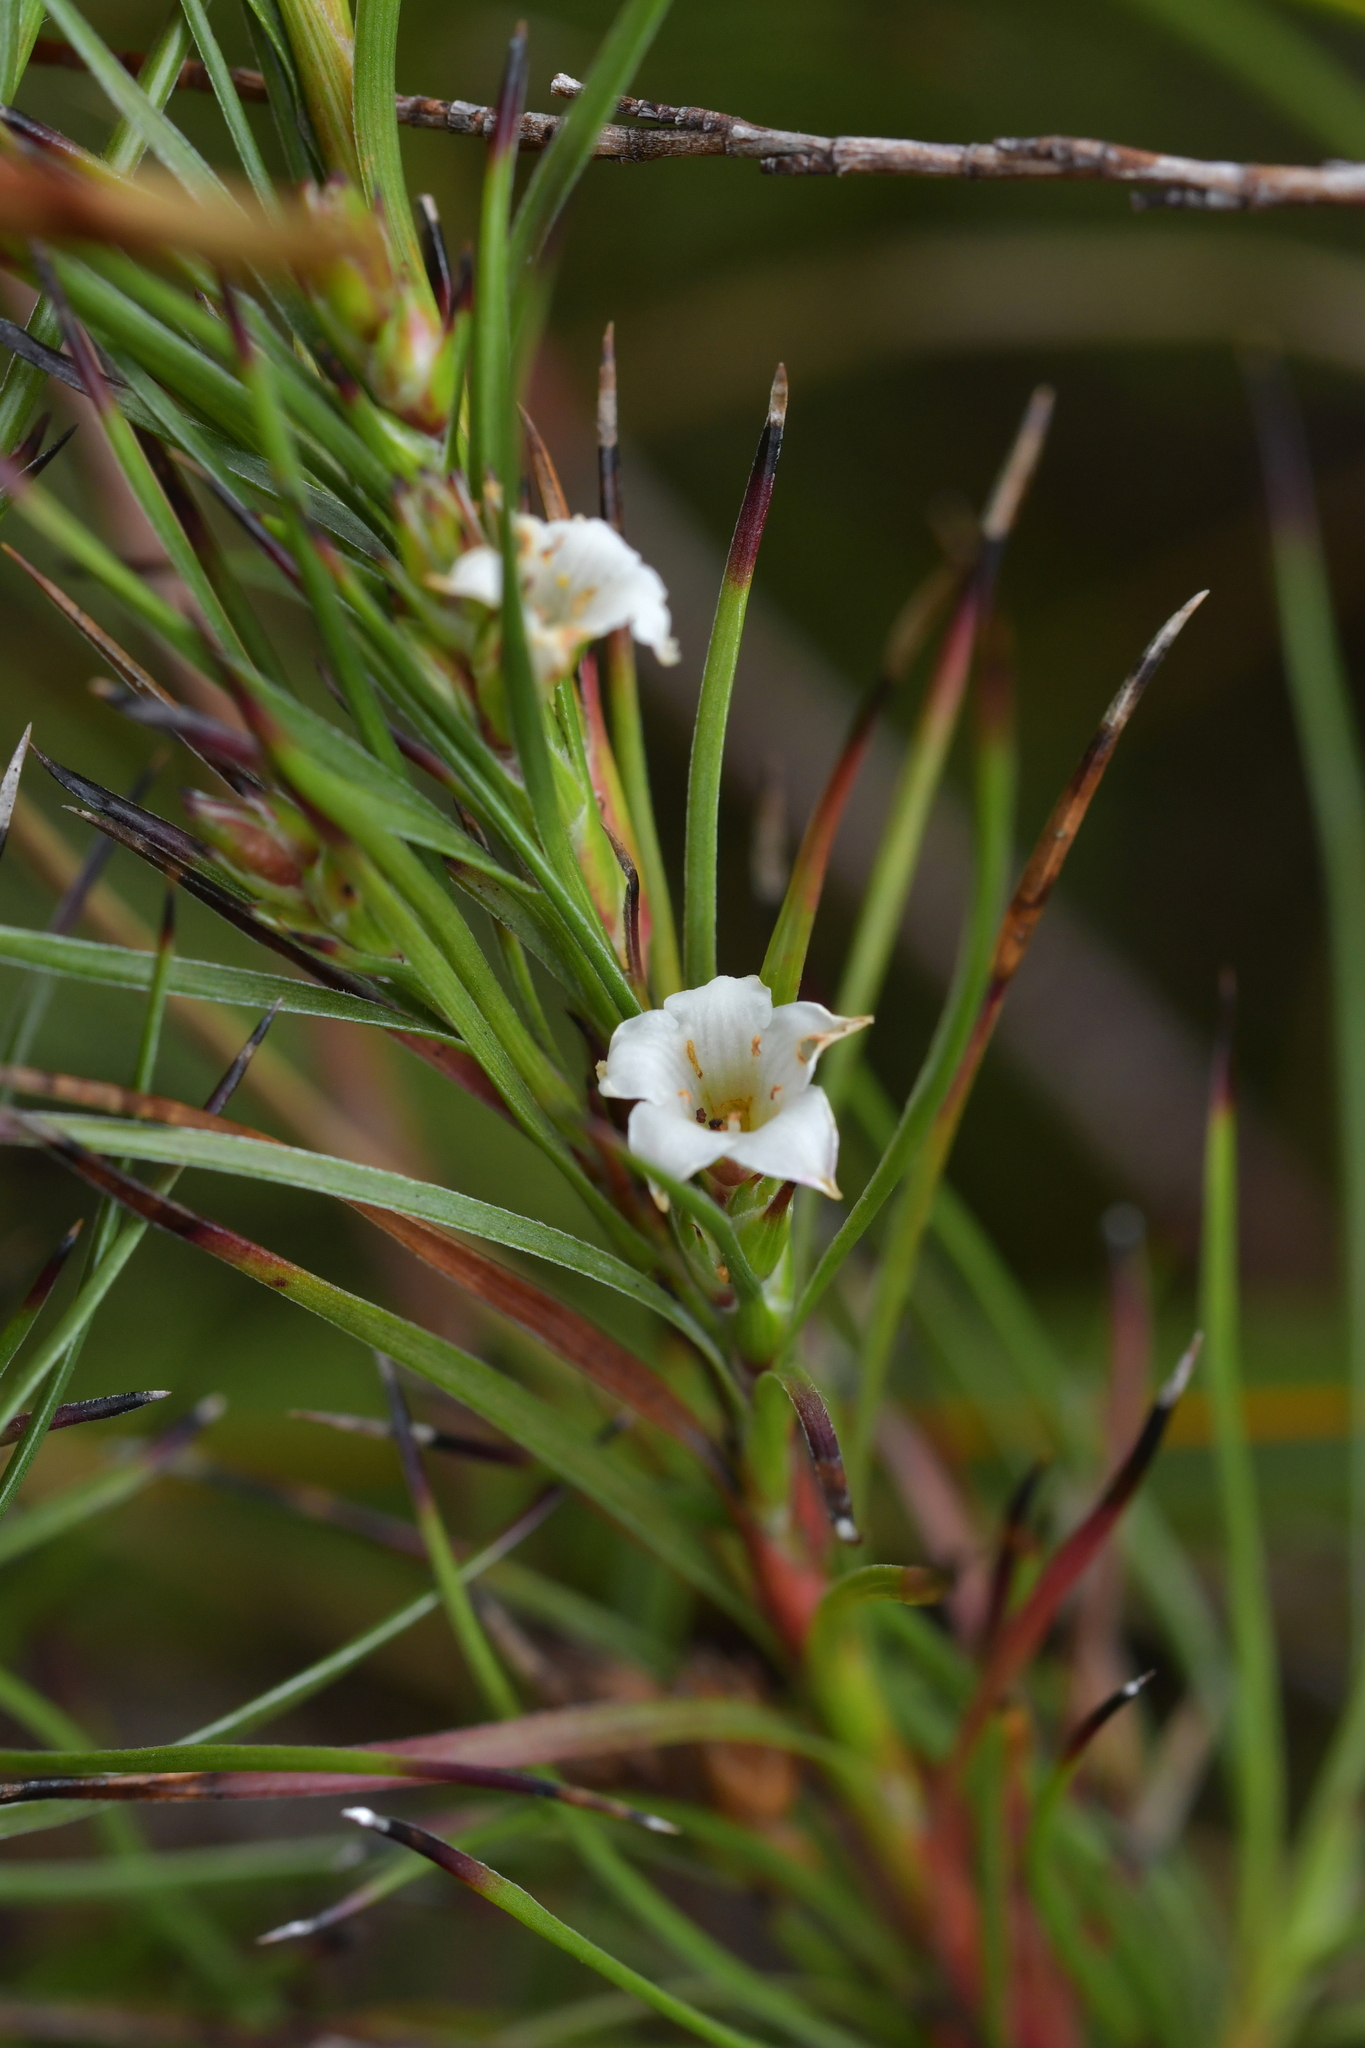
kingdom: Plantae
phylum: Tracheophyta
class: Magnoliopsida
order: Ericales
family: Ericaceae
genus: Dracophyllum
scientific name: Dracophyllum scoparium
